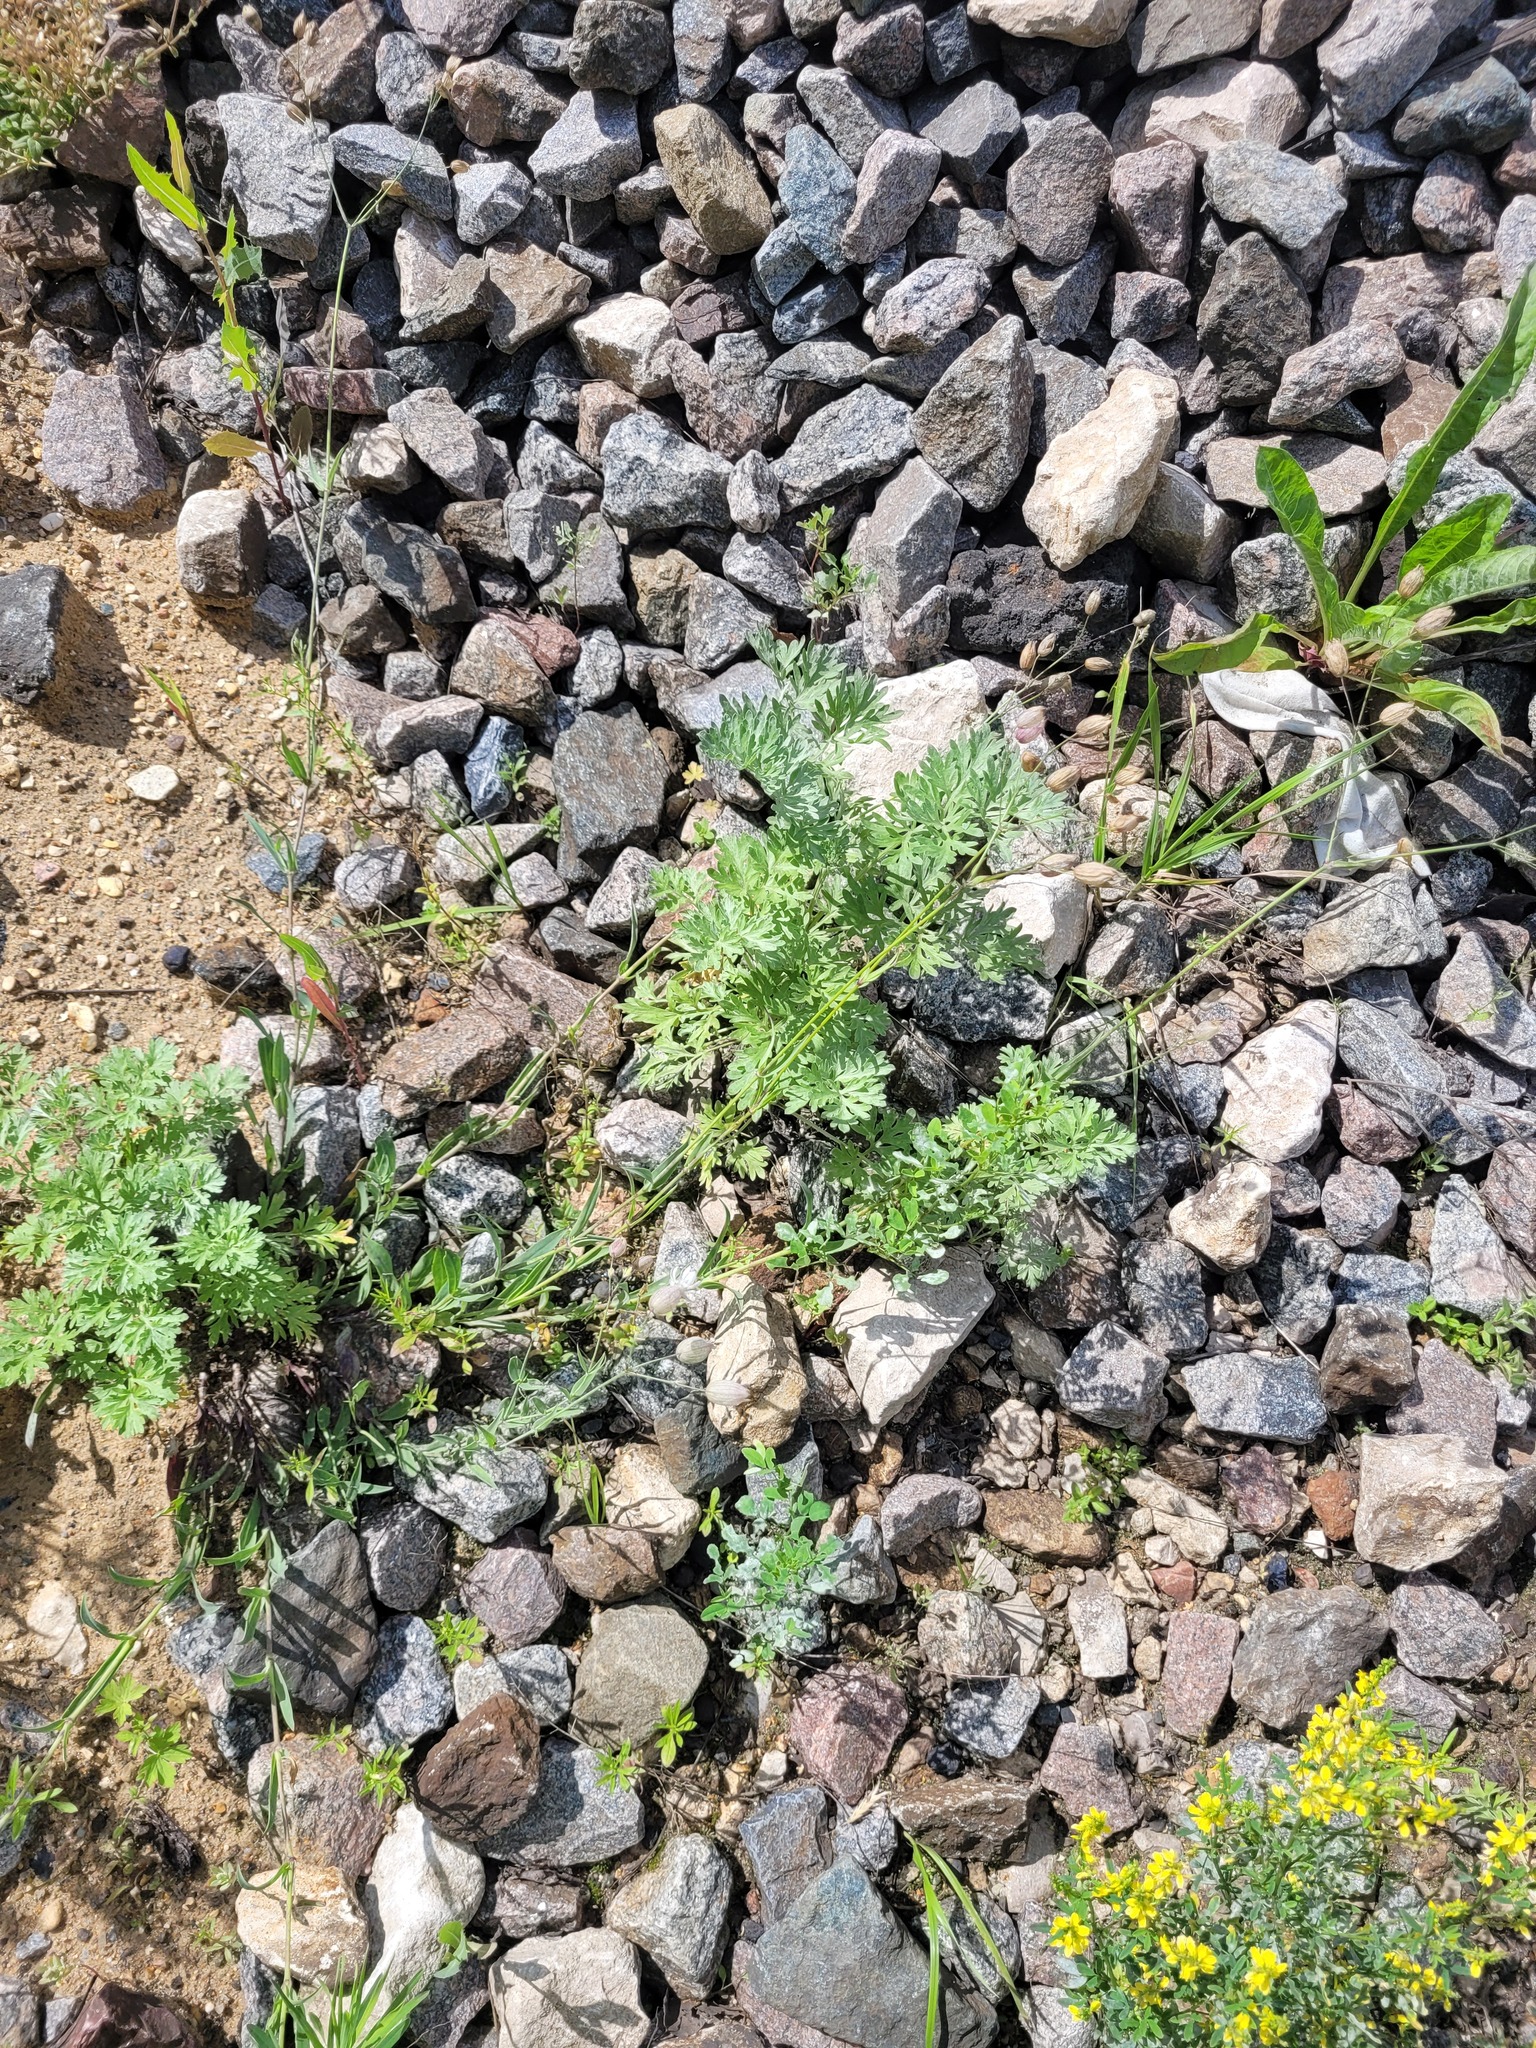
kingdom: Plantae
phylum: Tracheophyta
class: Magnoliopsida
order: Caryophyllales
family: Caryophyllaceae
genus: Silene
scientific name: Silene vulgaris
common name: Bladder campion
